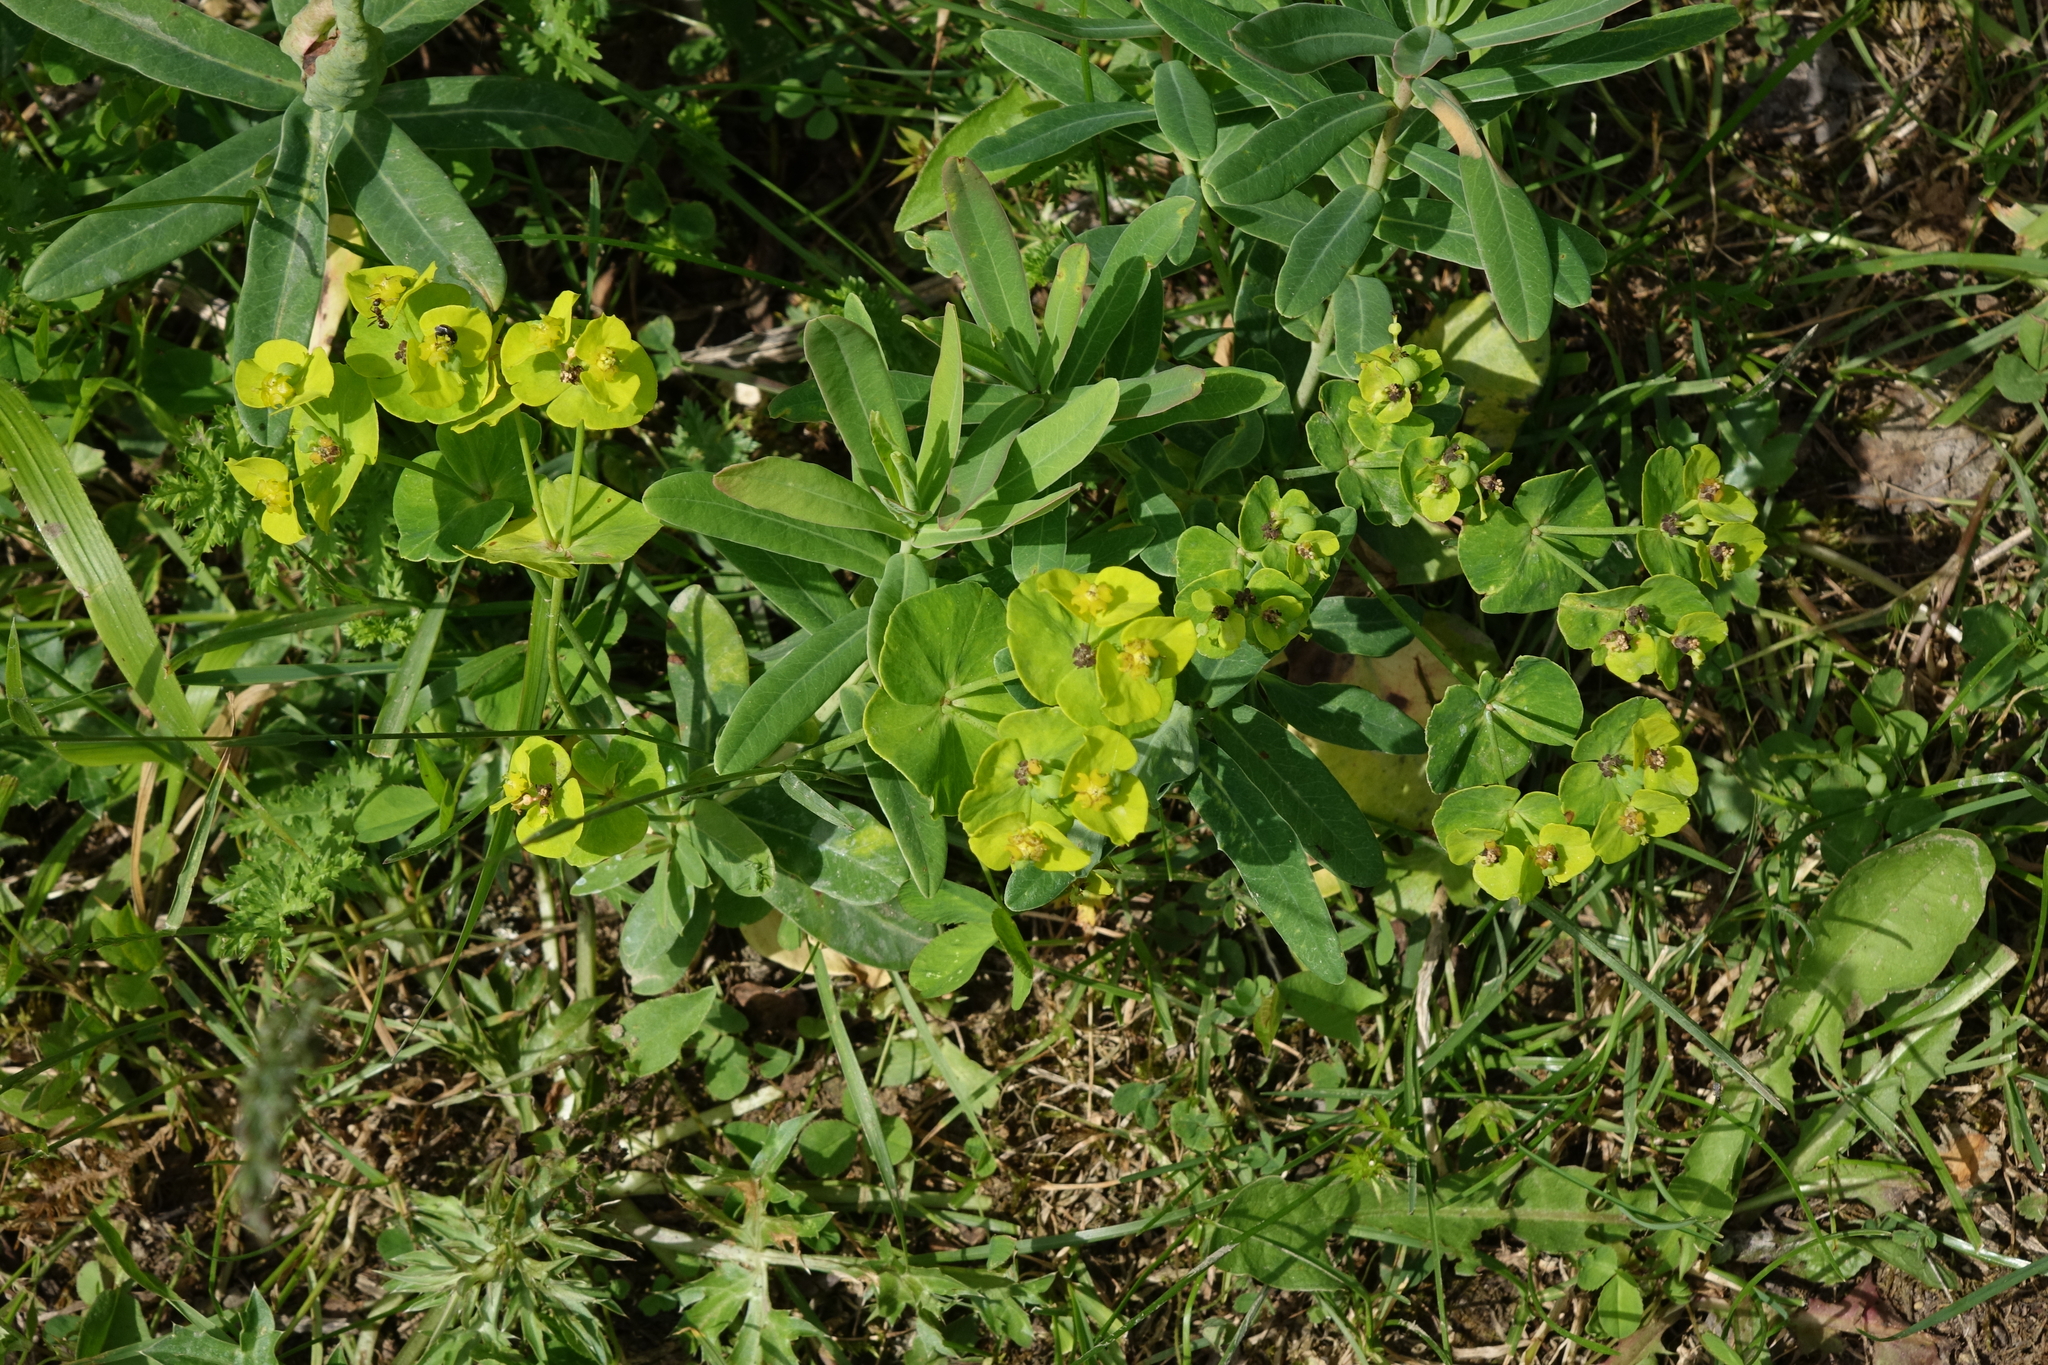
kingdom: Plantae
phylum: Tracheophyta
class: Magnoliopsida
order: Malpighiales
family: Euphorbiaceae
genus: Euphorbia
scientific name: Euphorbia iberica
